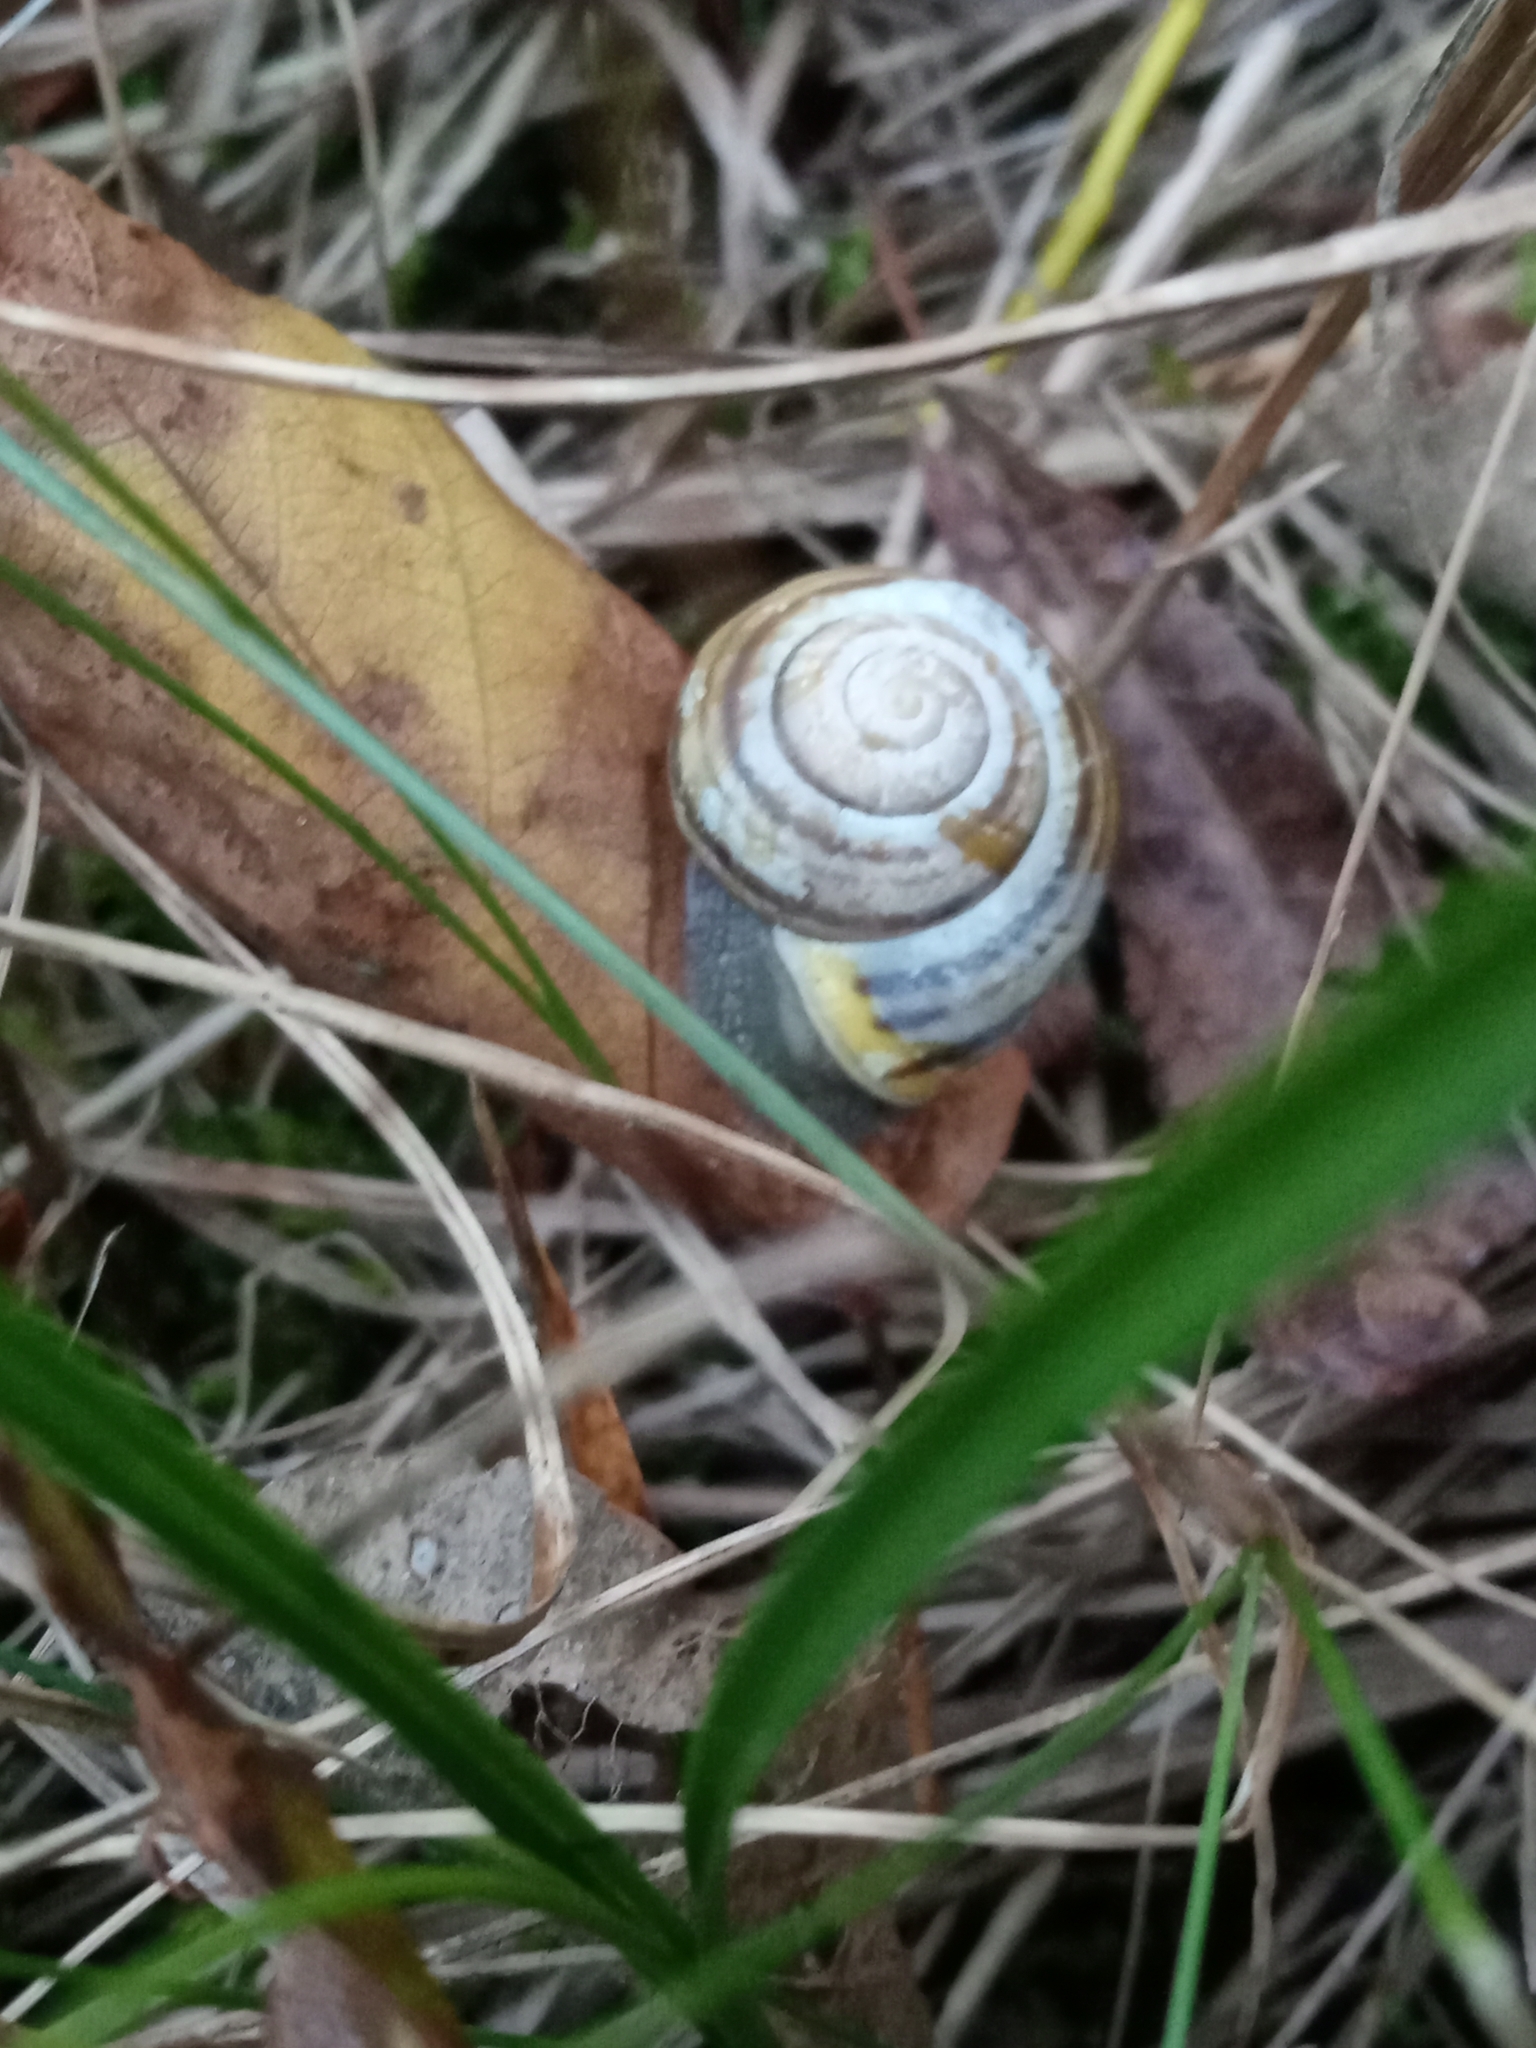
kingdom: Animalia
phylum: Mollusca
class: Gastropoda
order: Stylommatophora
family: Helicidae
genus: Cepaea
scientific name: Cepaea hortensis
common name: White-lip gardensnail
